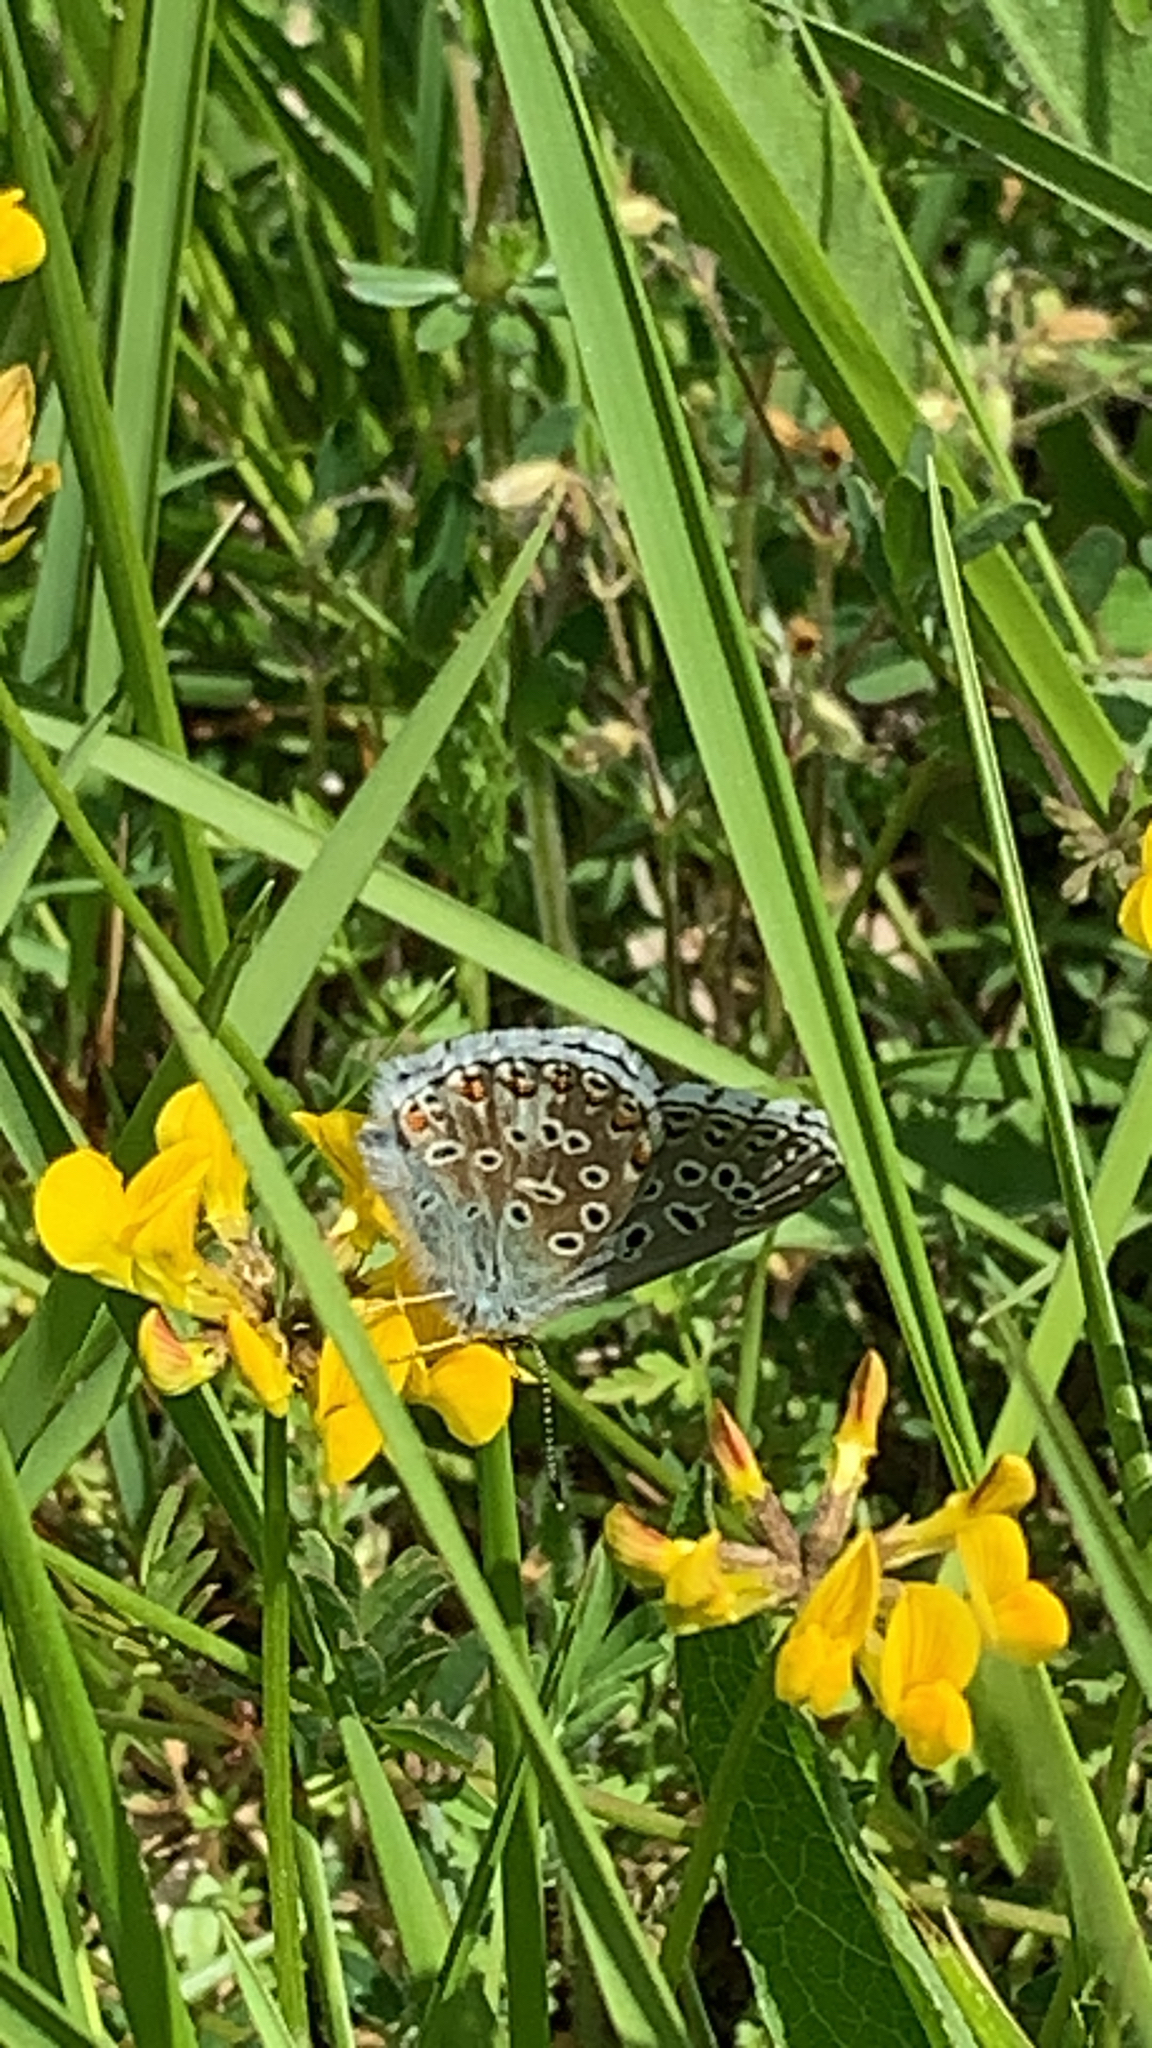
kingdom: Animalia
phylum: Arthropoda
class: Insecta
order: Lepidoptera
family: Lycaenidae
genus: Lysandra
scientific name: Lysandra bellargus
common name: Adonis blue
